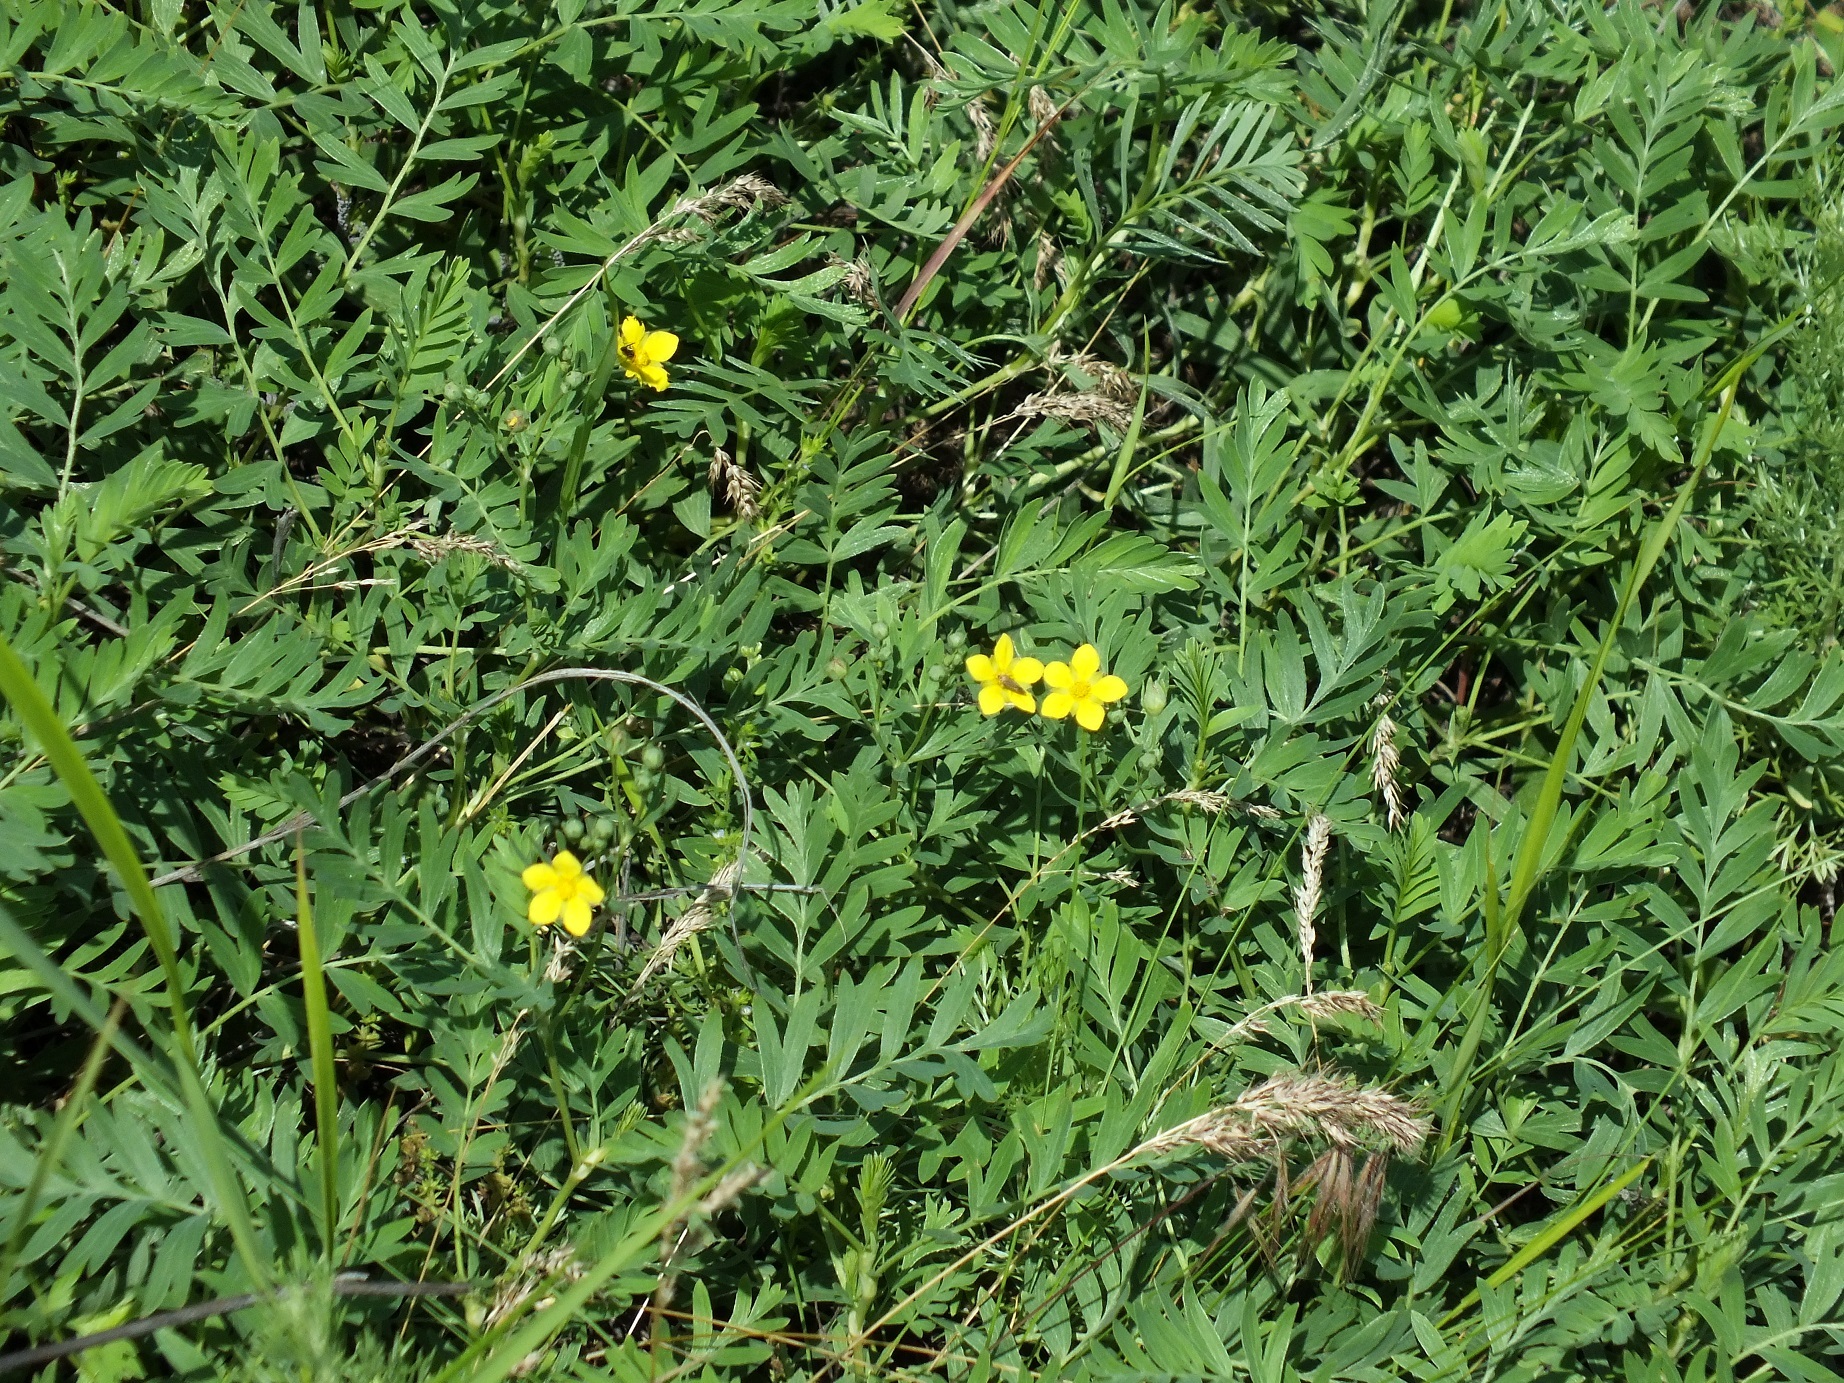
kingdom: Plantae
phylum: Tracheophyta
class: Magnoliopsida
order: Rosales
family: Rosaceae
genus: Sibbaldianthe
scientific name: Sibbaldianthe orientalis
